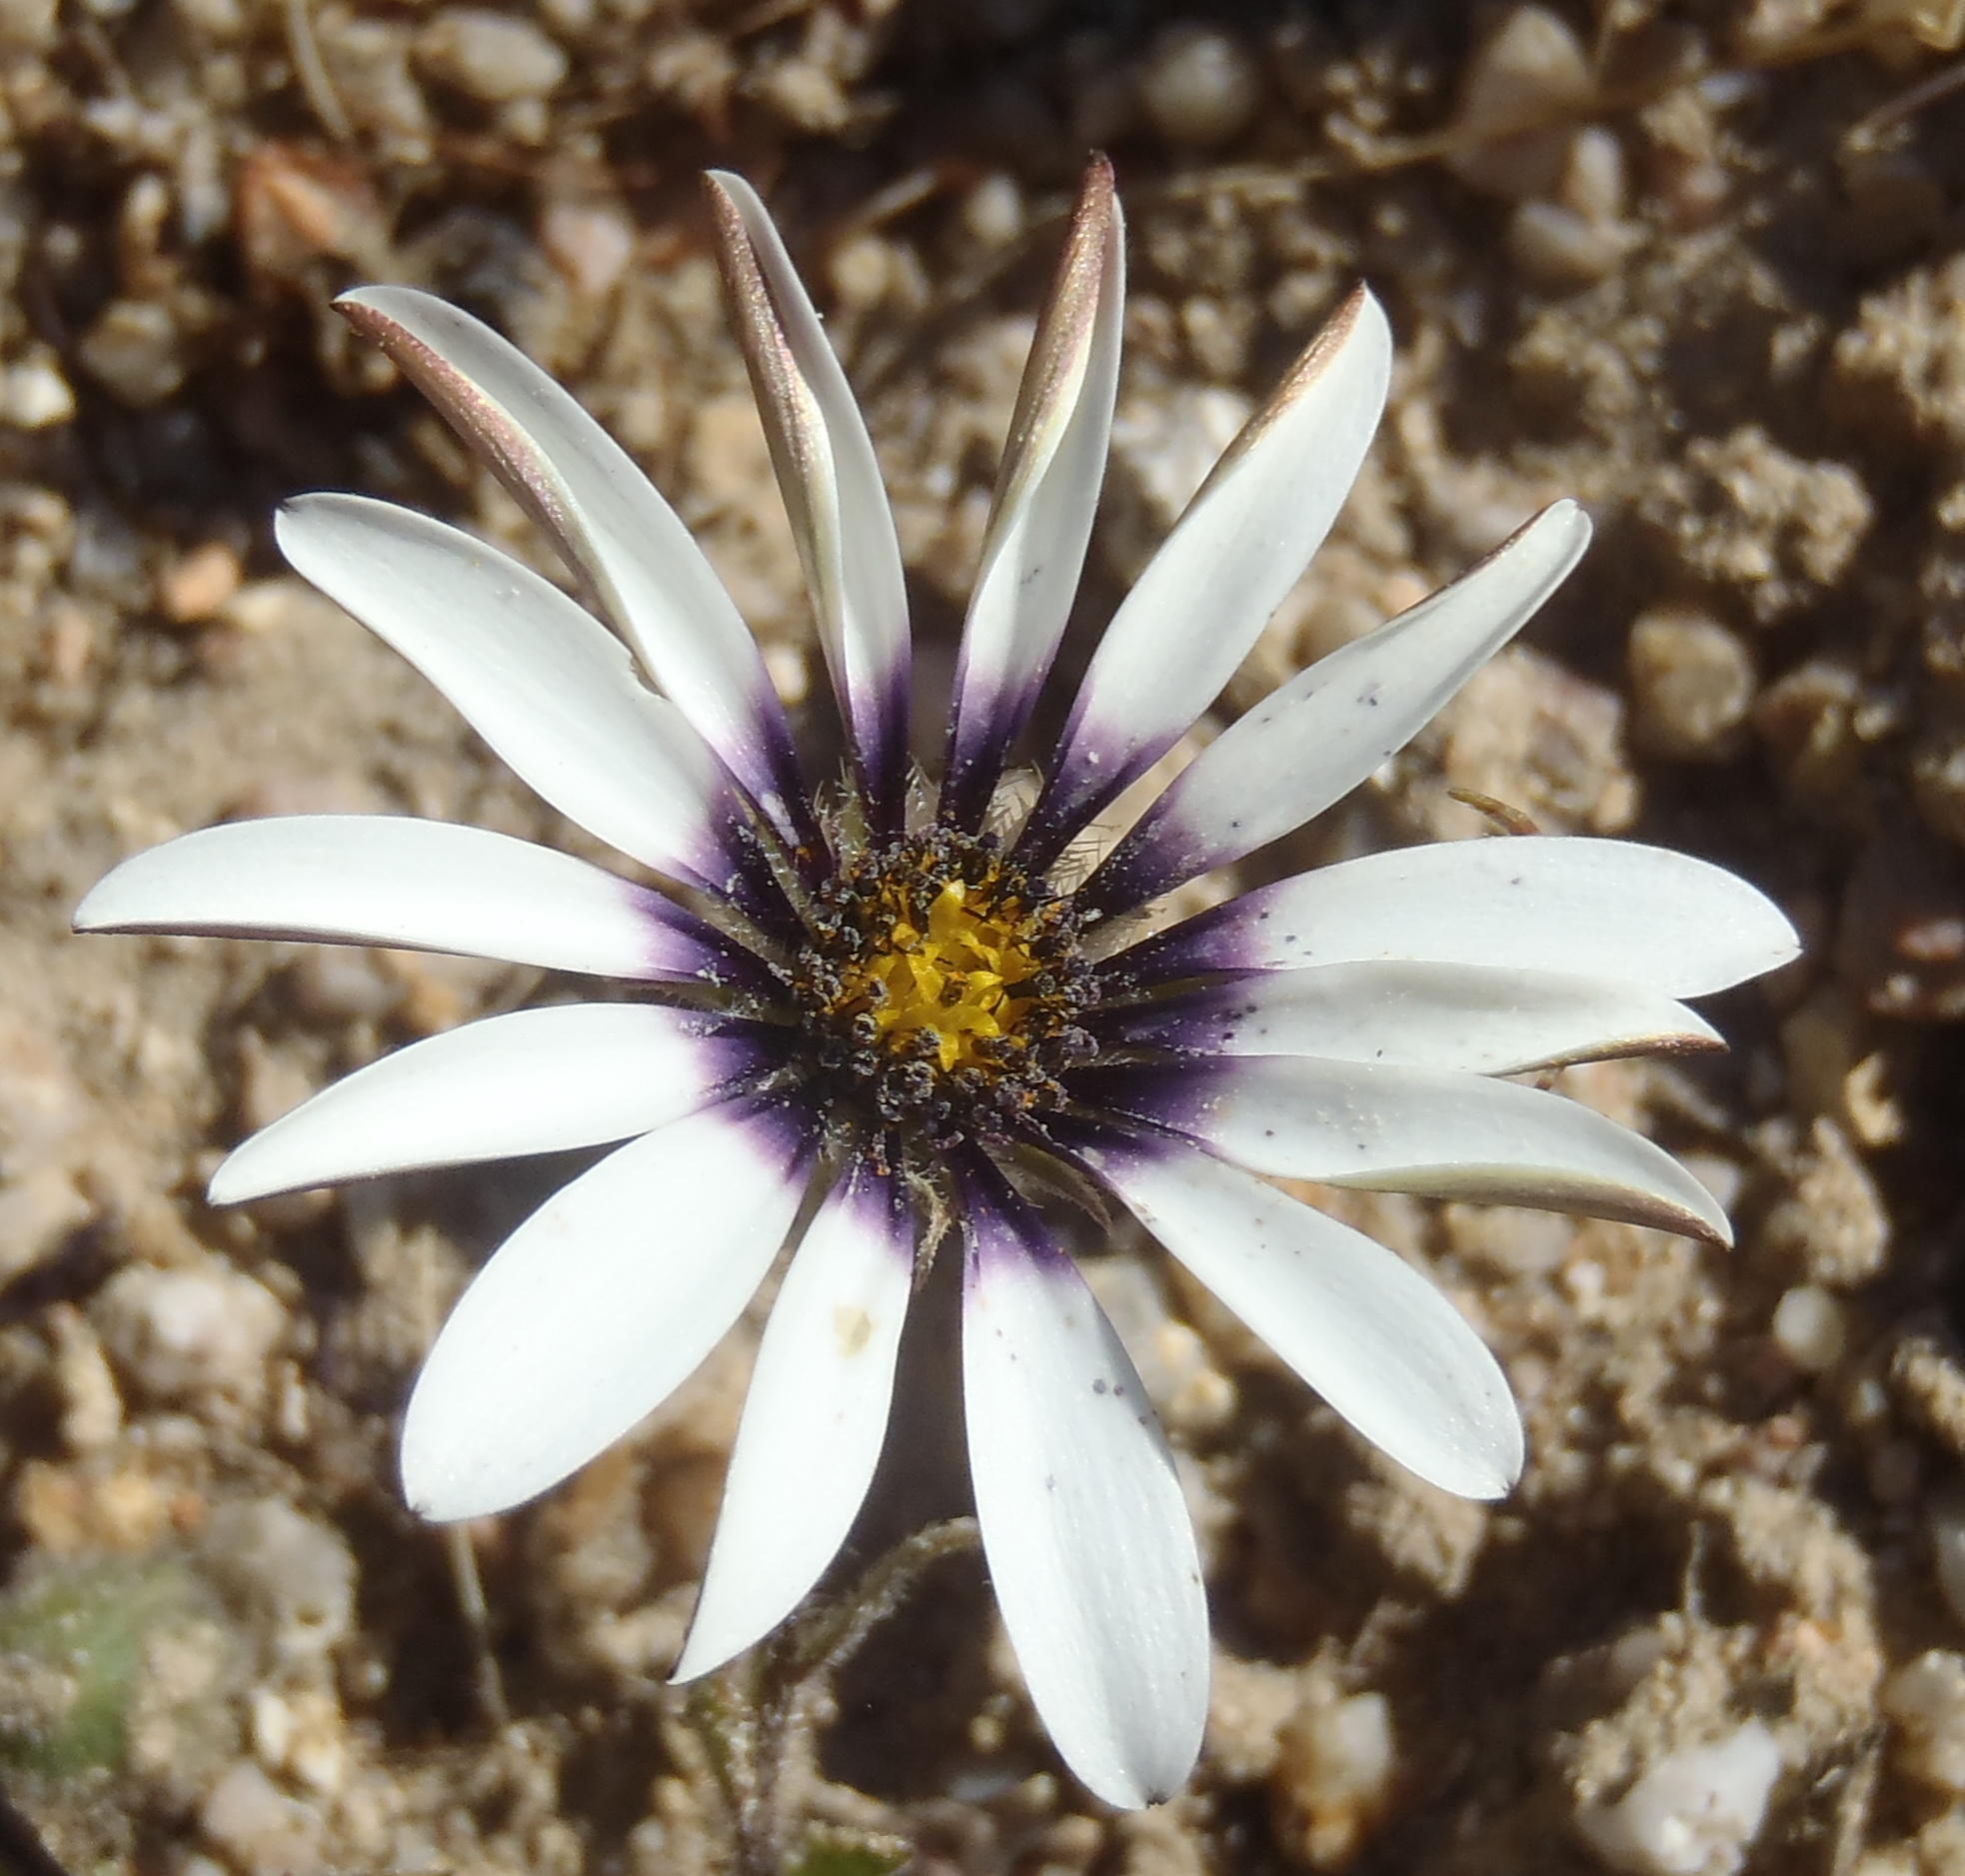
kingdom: Plantae
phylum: Tracheophyta
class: Magnoliopsida
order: Asterales
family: Asteraceae
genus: Dimorphotheca
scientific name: Dimorphotheca pluvialis
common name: Weather prophet
